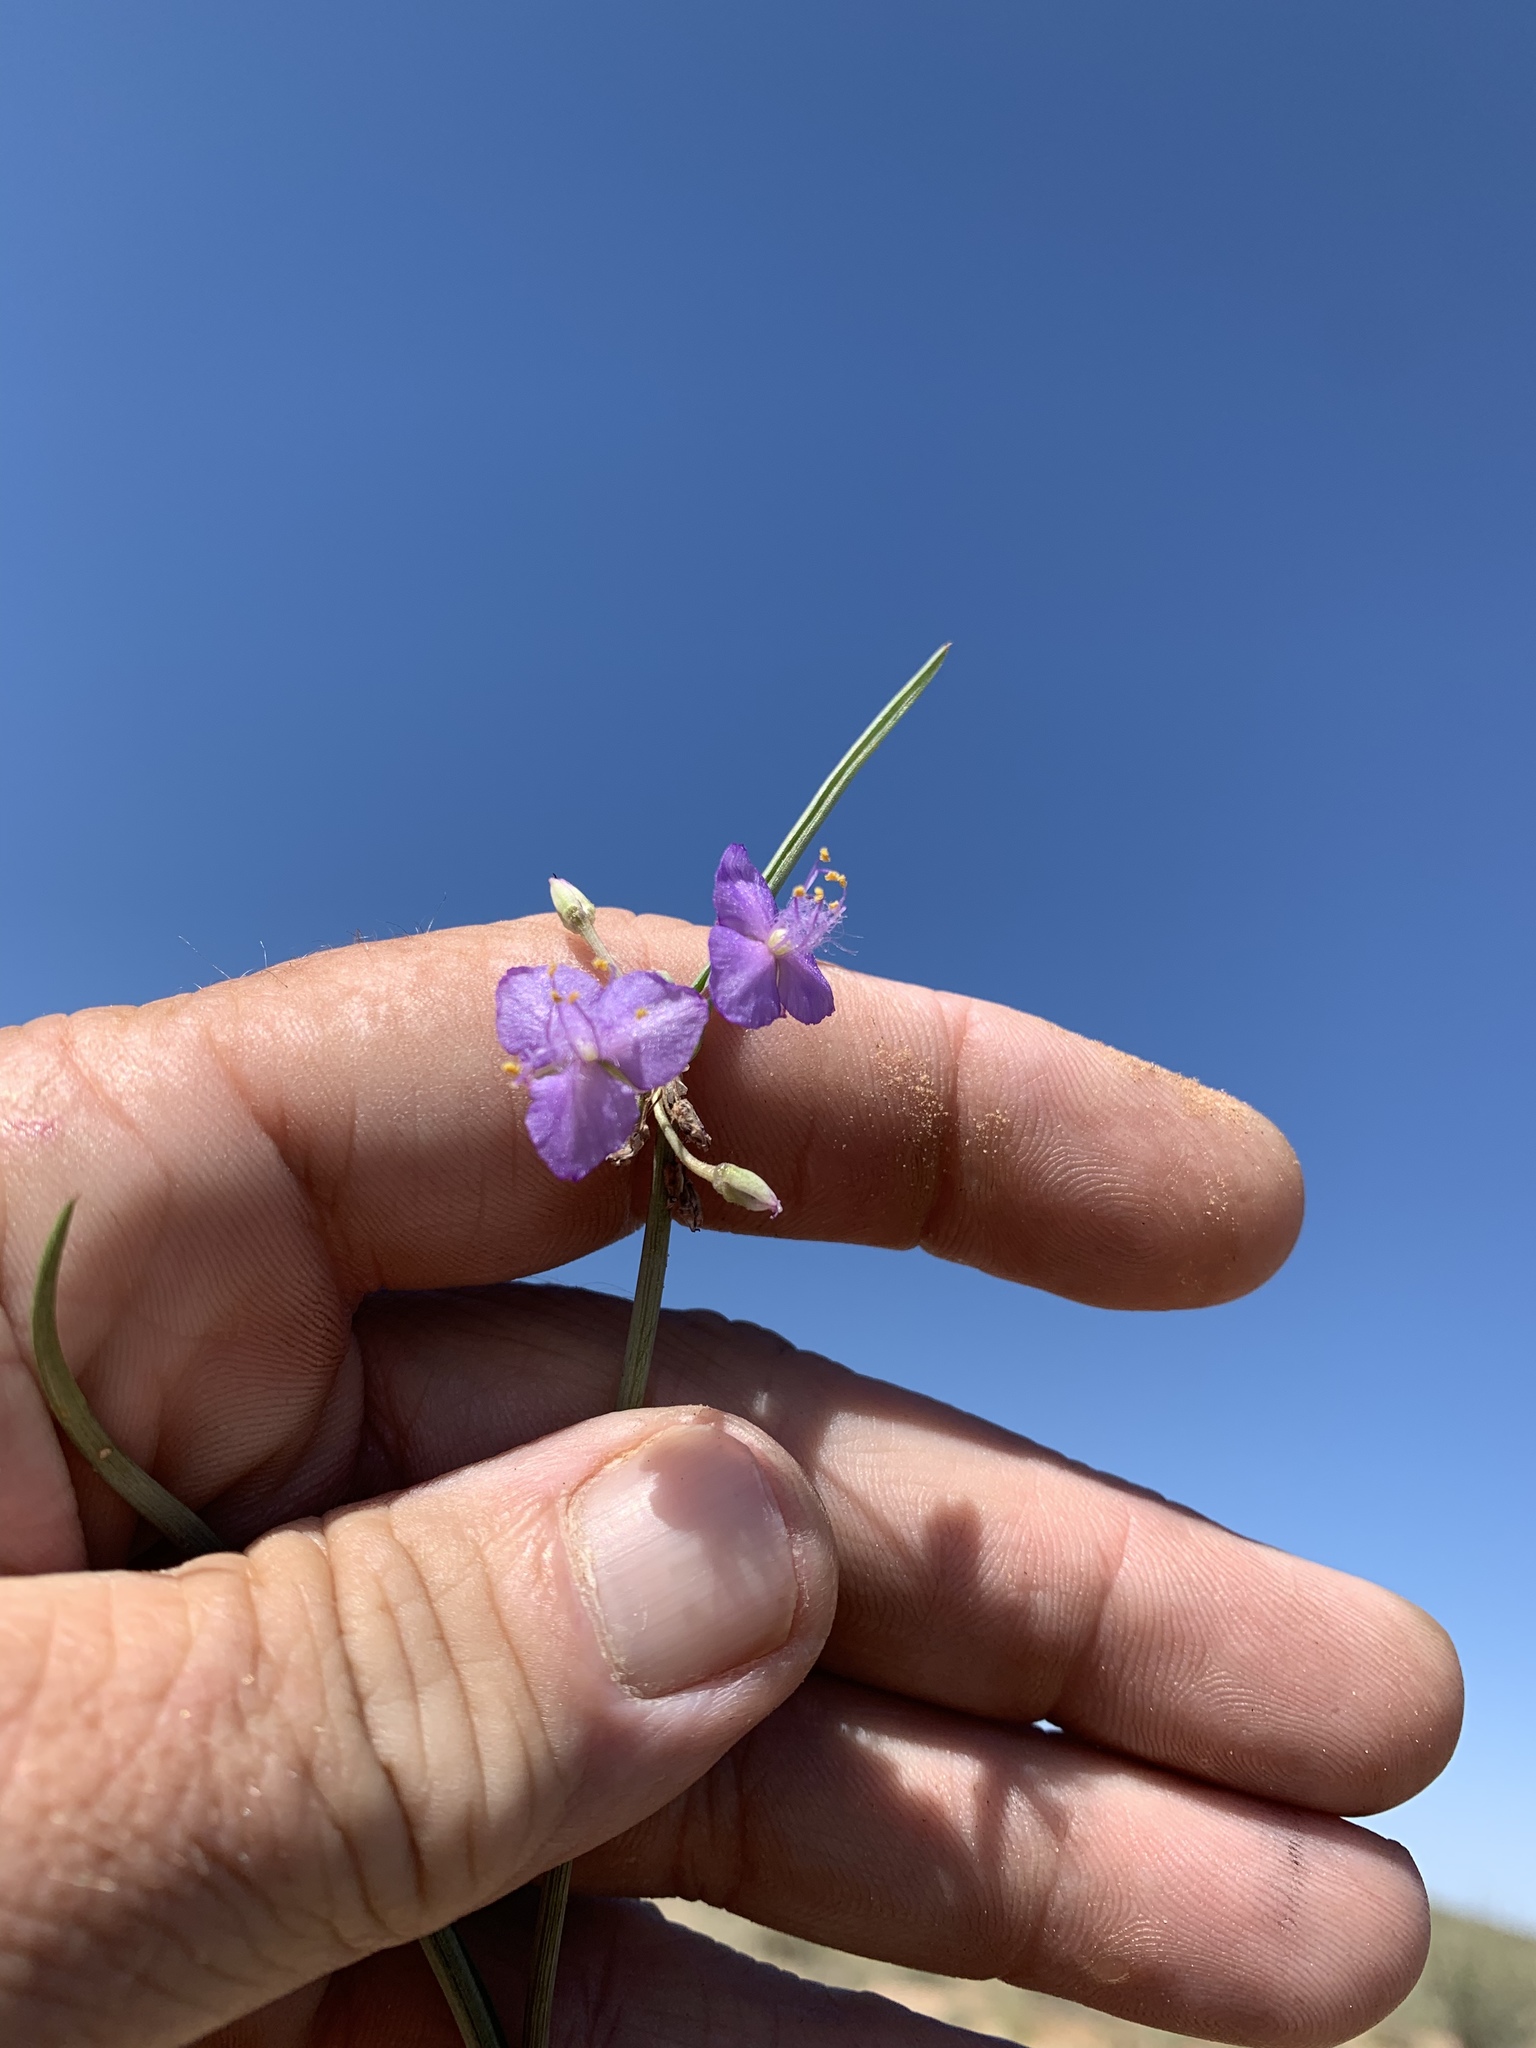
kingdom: Plantae
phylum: Tracheophyta
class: Liliopsida
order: Commelinales
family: Commelinaceae
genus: Tradescantia
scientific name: Tradescantia wrightii
